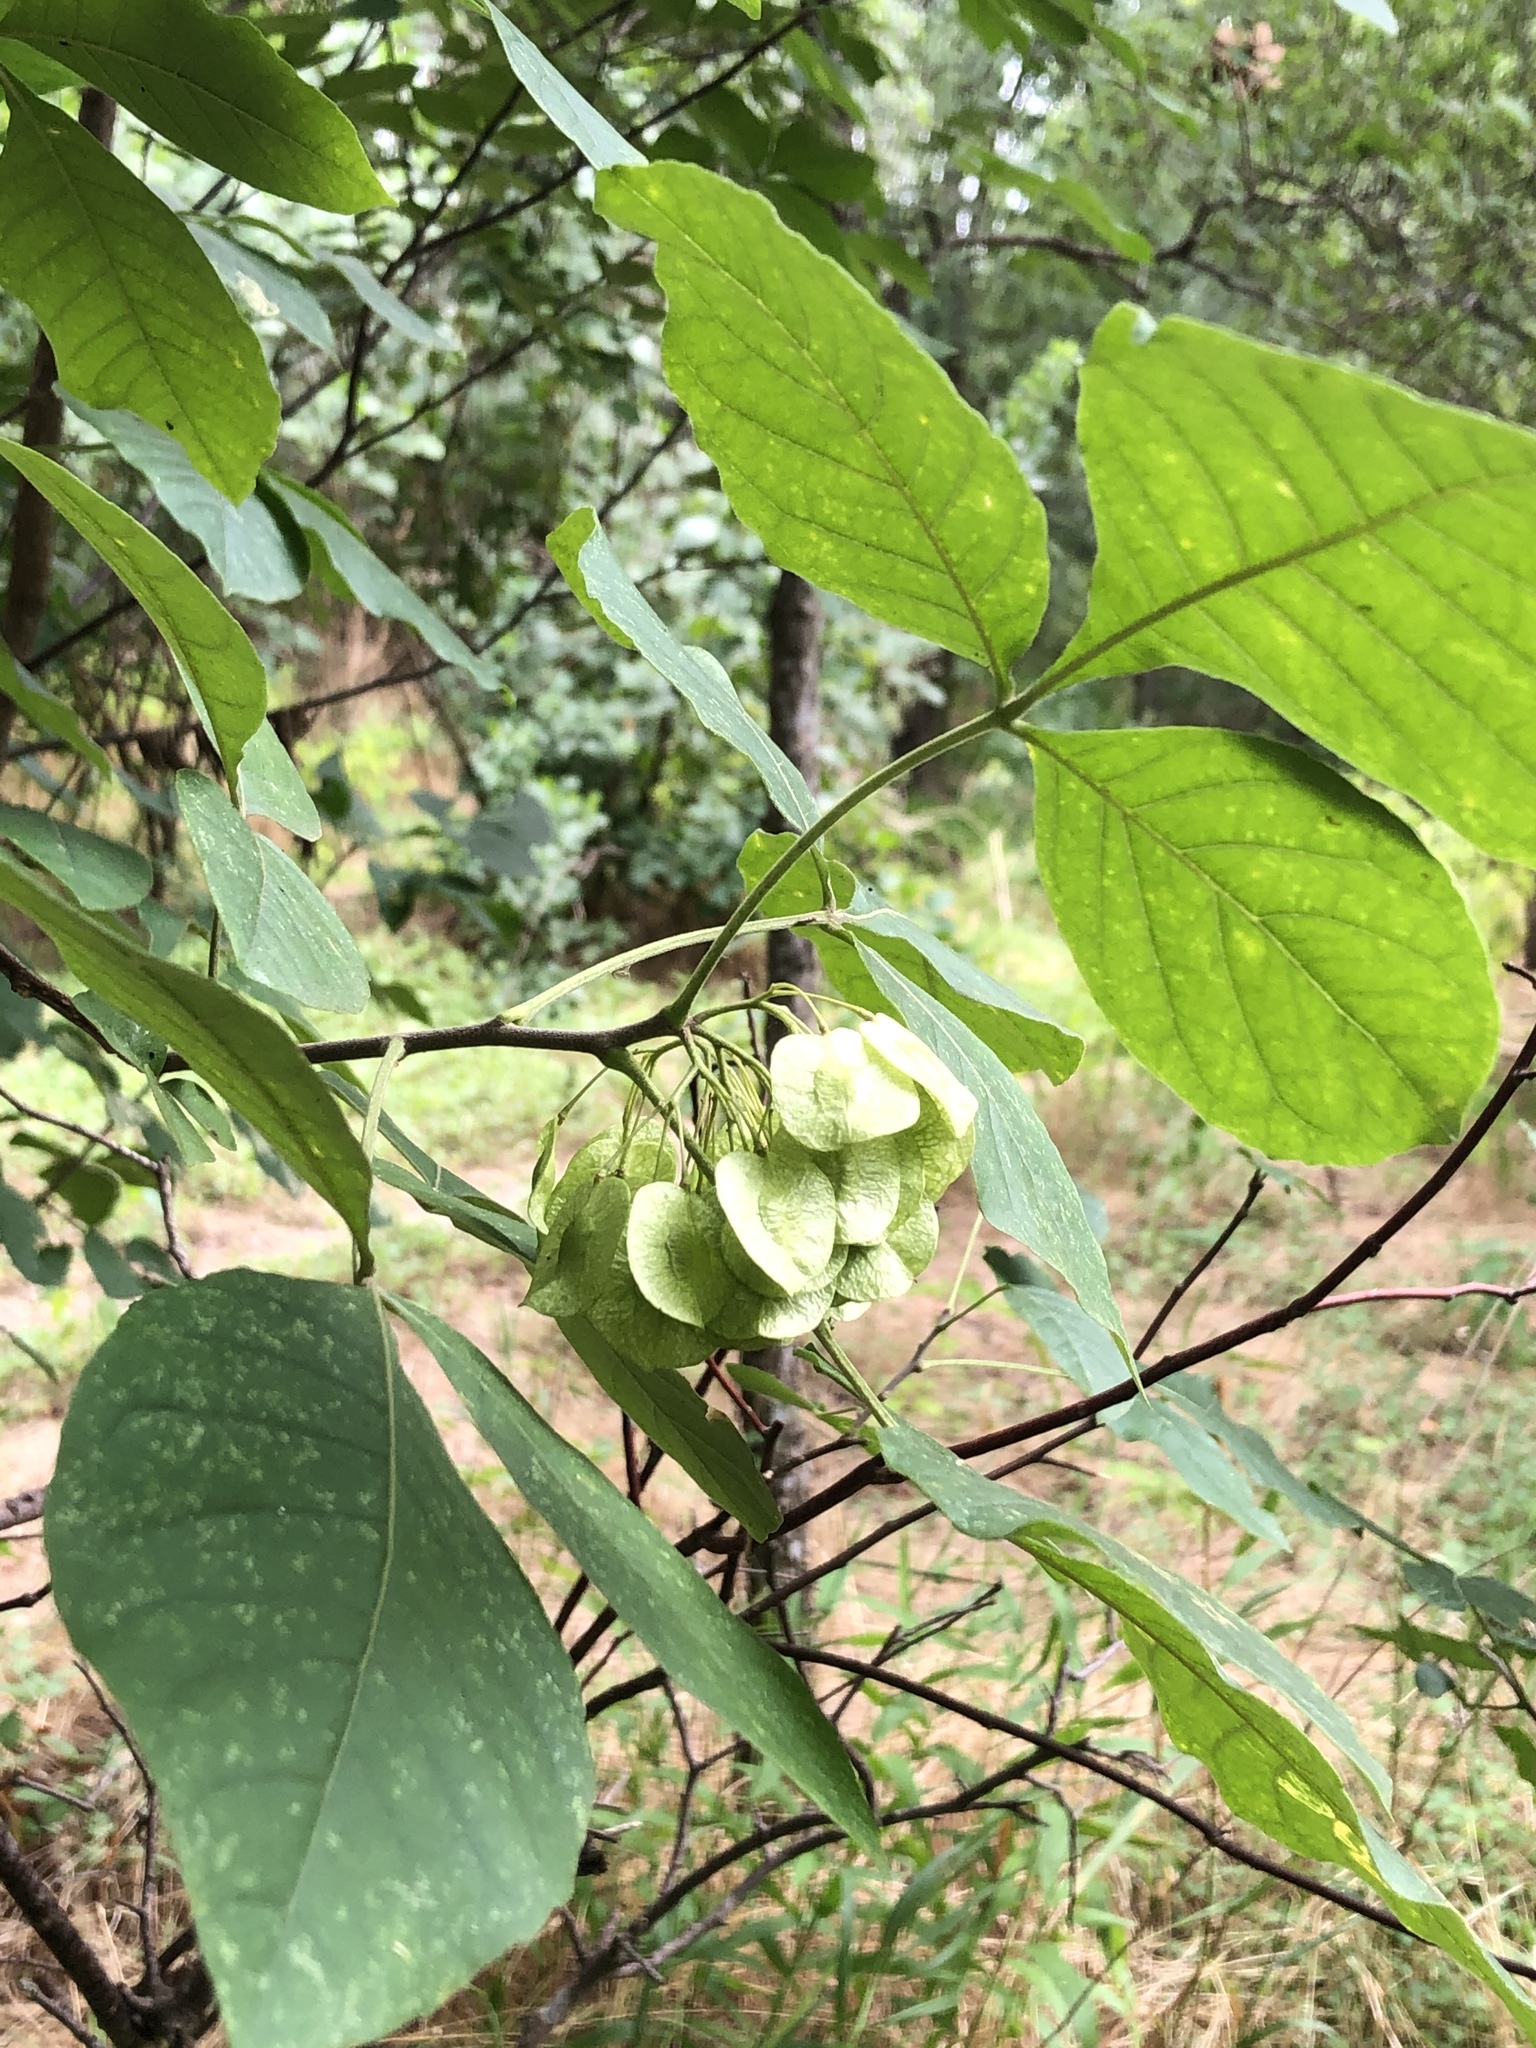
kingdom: Plantae
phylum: Tracheophyta
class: Magnoliopsida
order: Sapindales
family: Rutaceae
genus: Ptelea
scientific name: Ptelea trifoliata
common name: Common hop-tree
